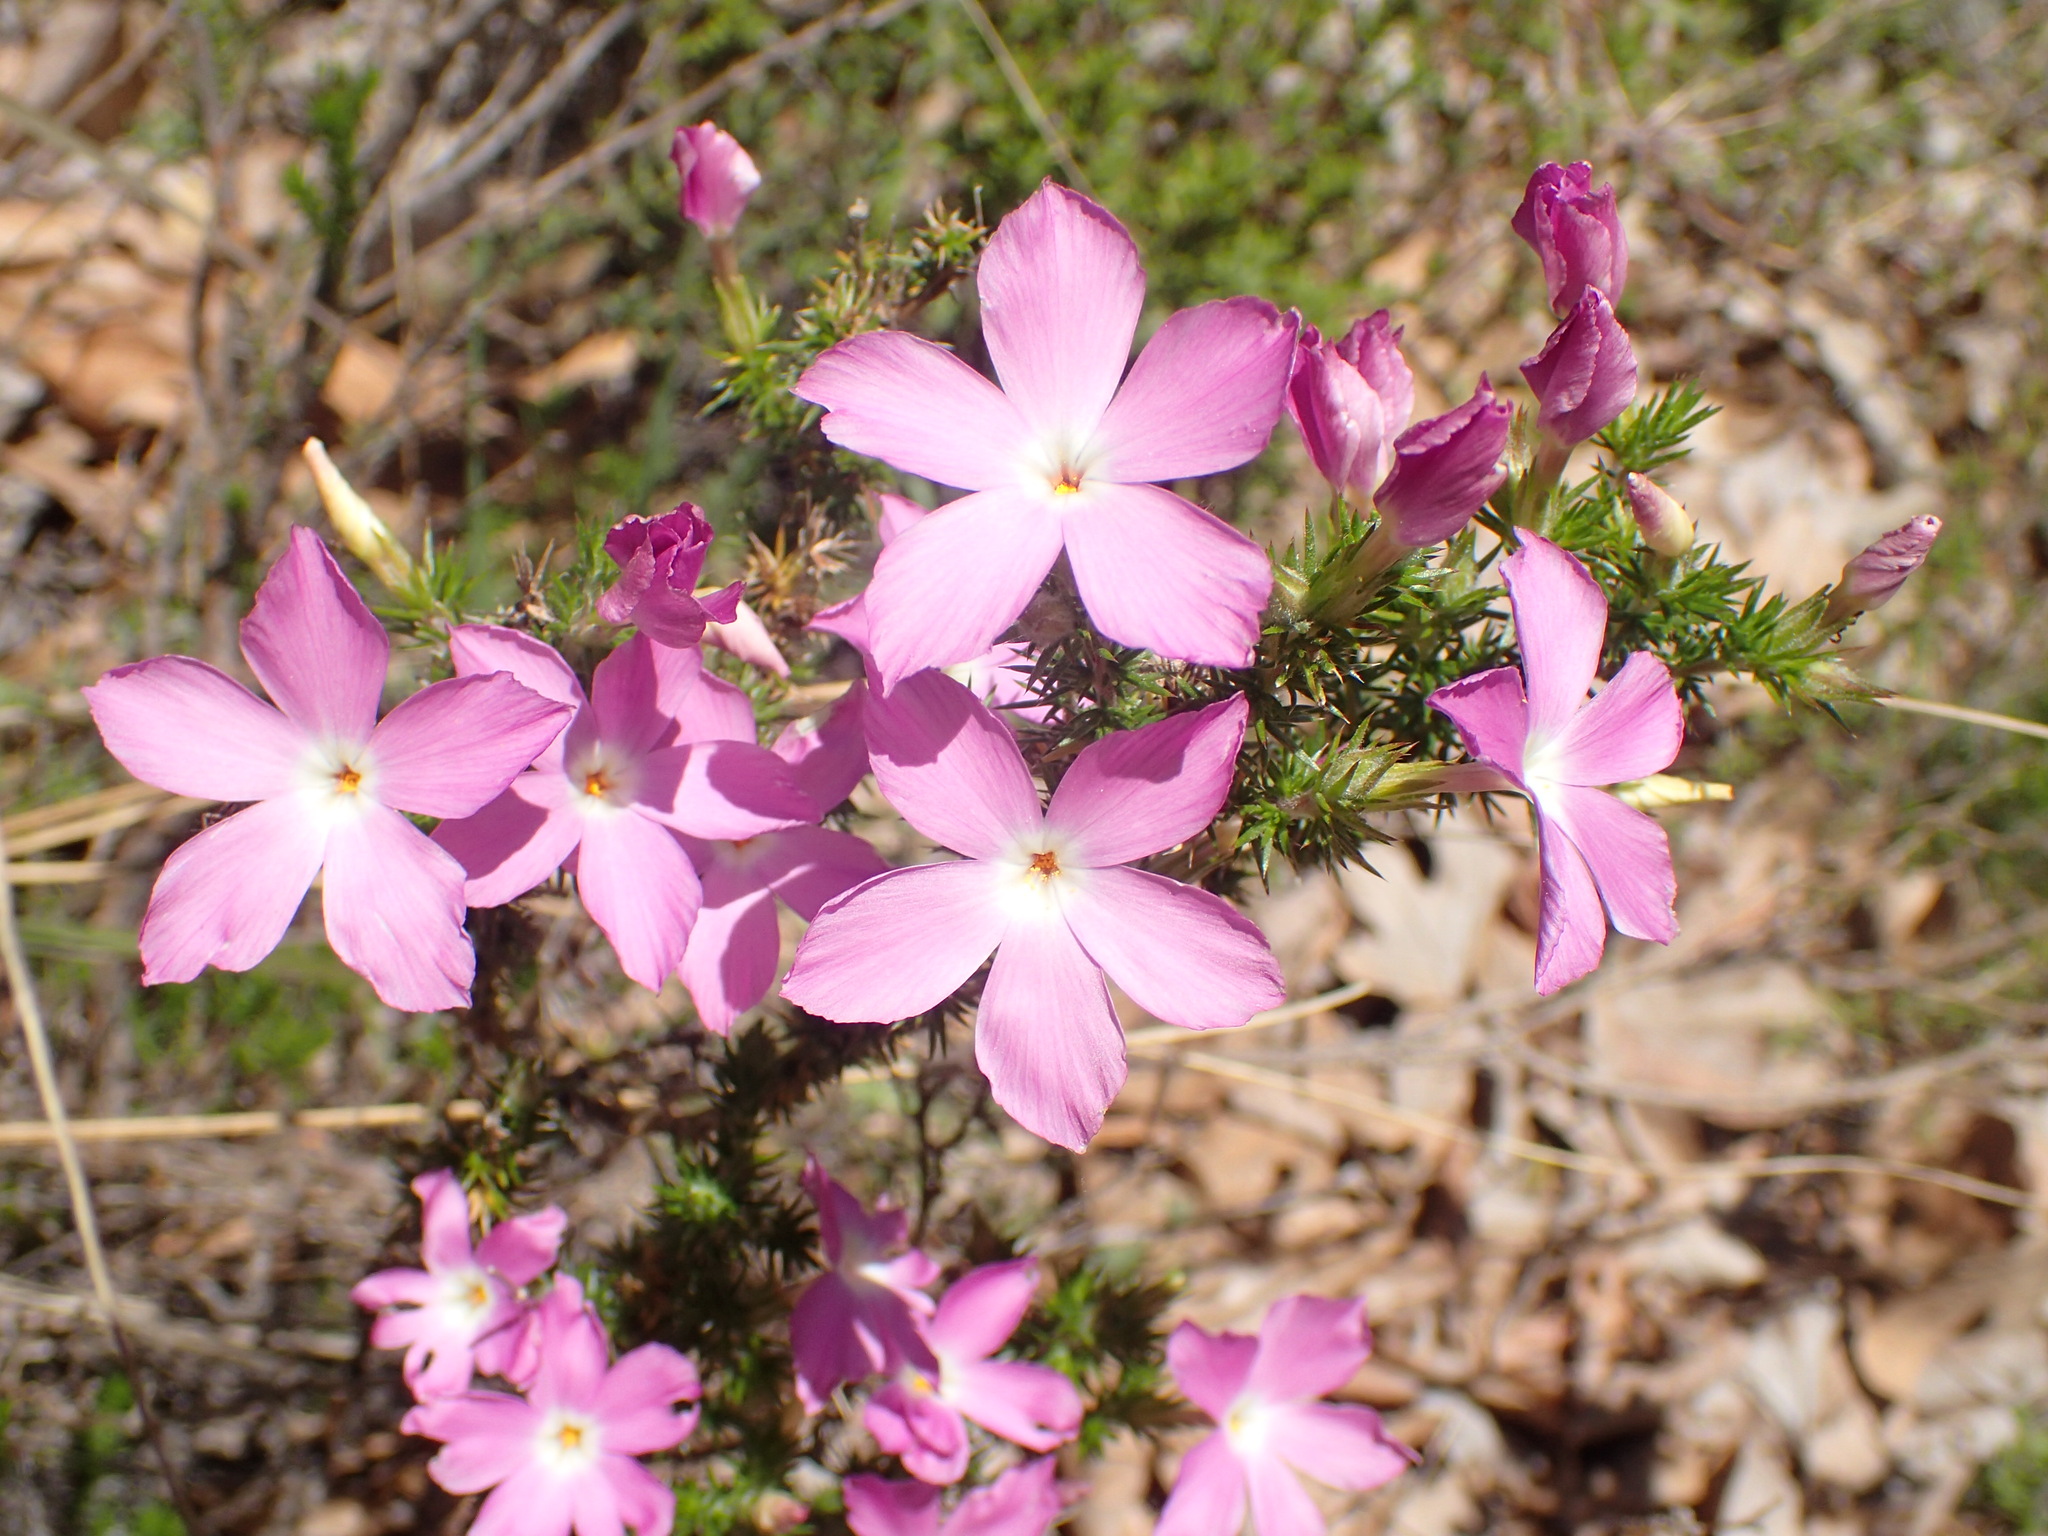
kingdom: Plantae
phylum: Tracheophyta
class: Magnoliopsida
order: Ericales
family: Polemoniaceae
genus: Linanthus
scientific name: Linanthus californicus
